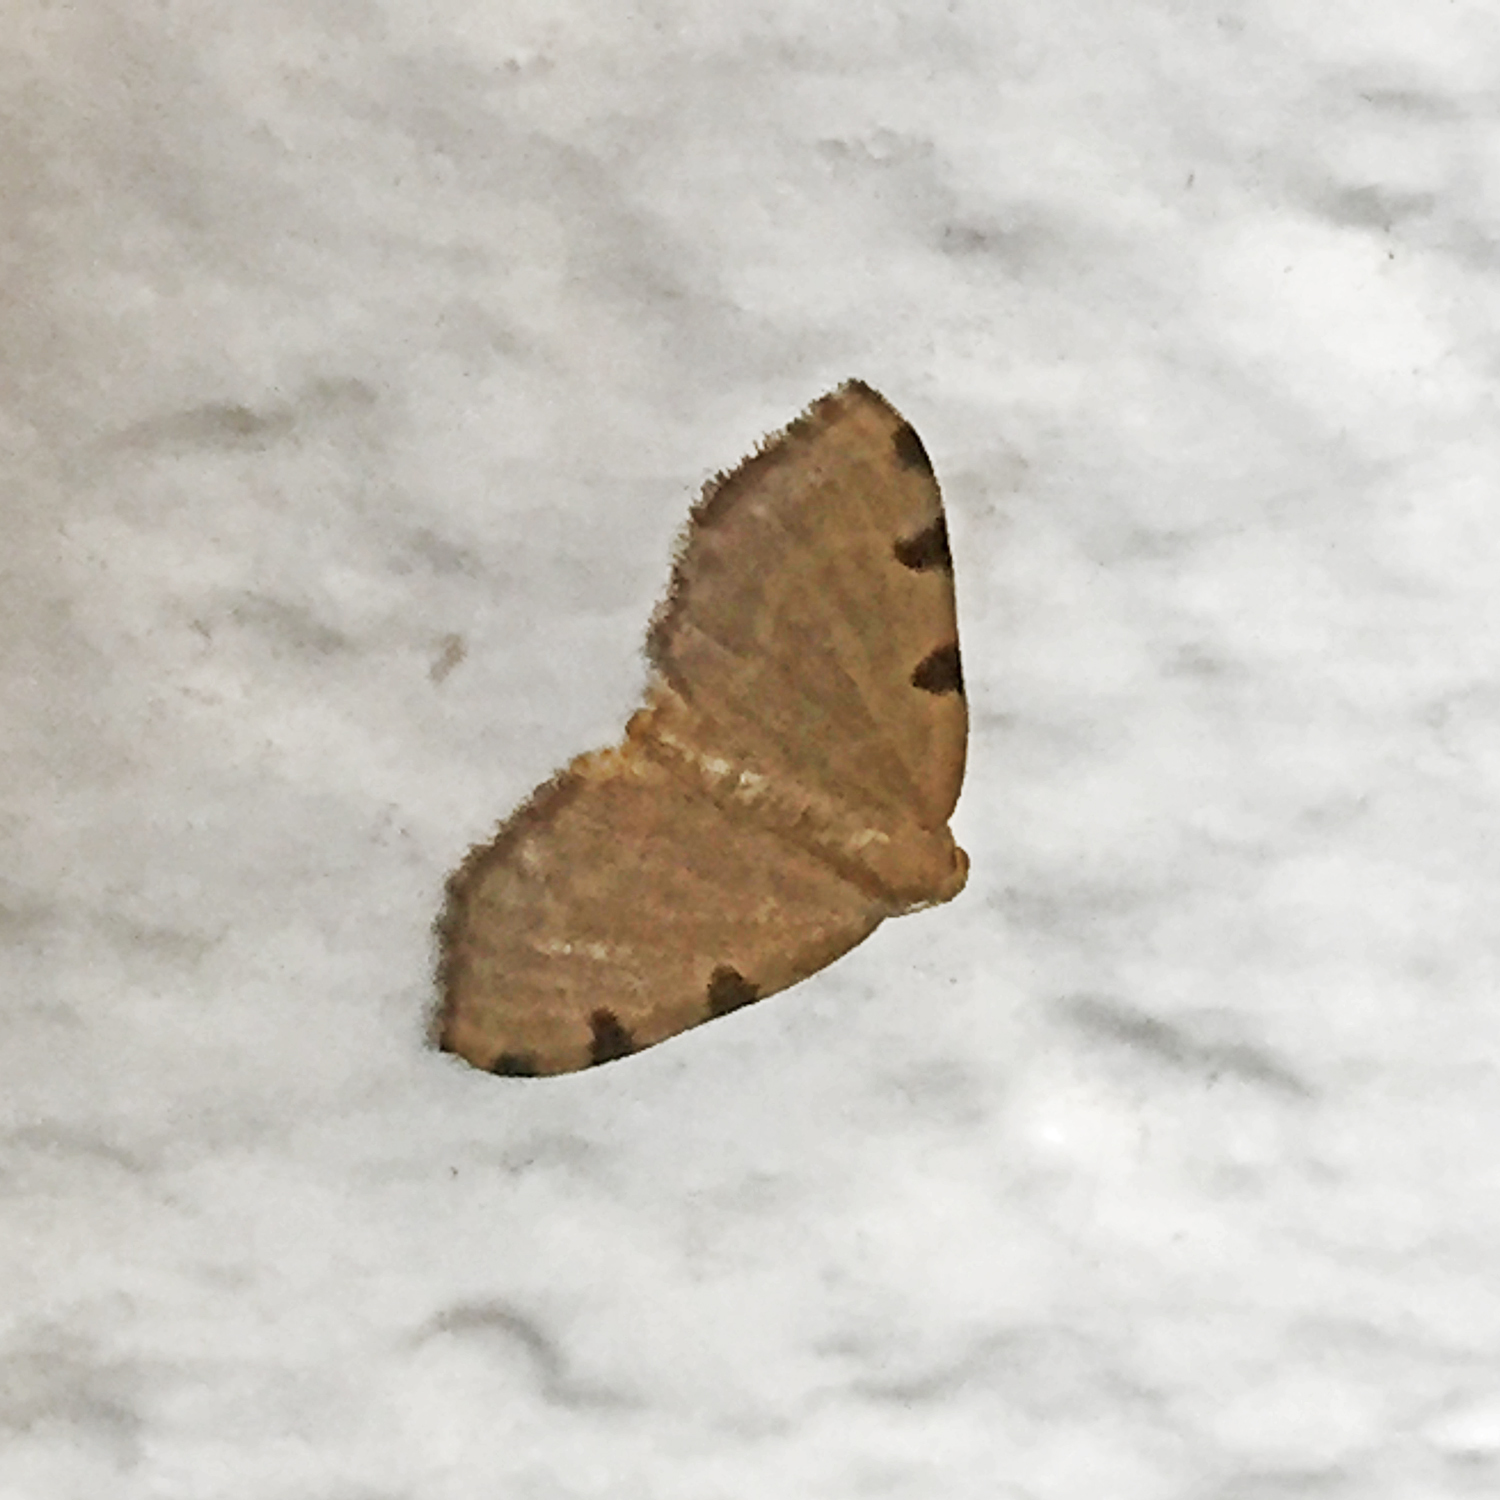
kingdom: Animalia
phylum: Arthropoda
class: Insecta
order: Lepidoptera
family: Geometridae
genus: Heterophleps
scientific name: Heterophleps triguttaria
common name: Three-spotted fillip
